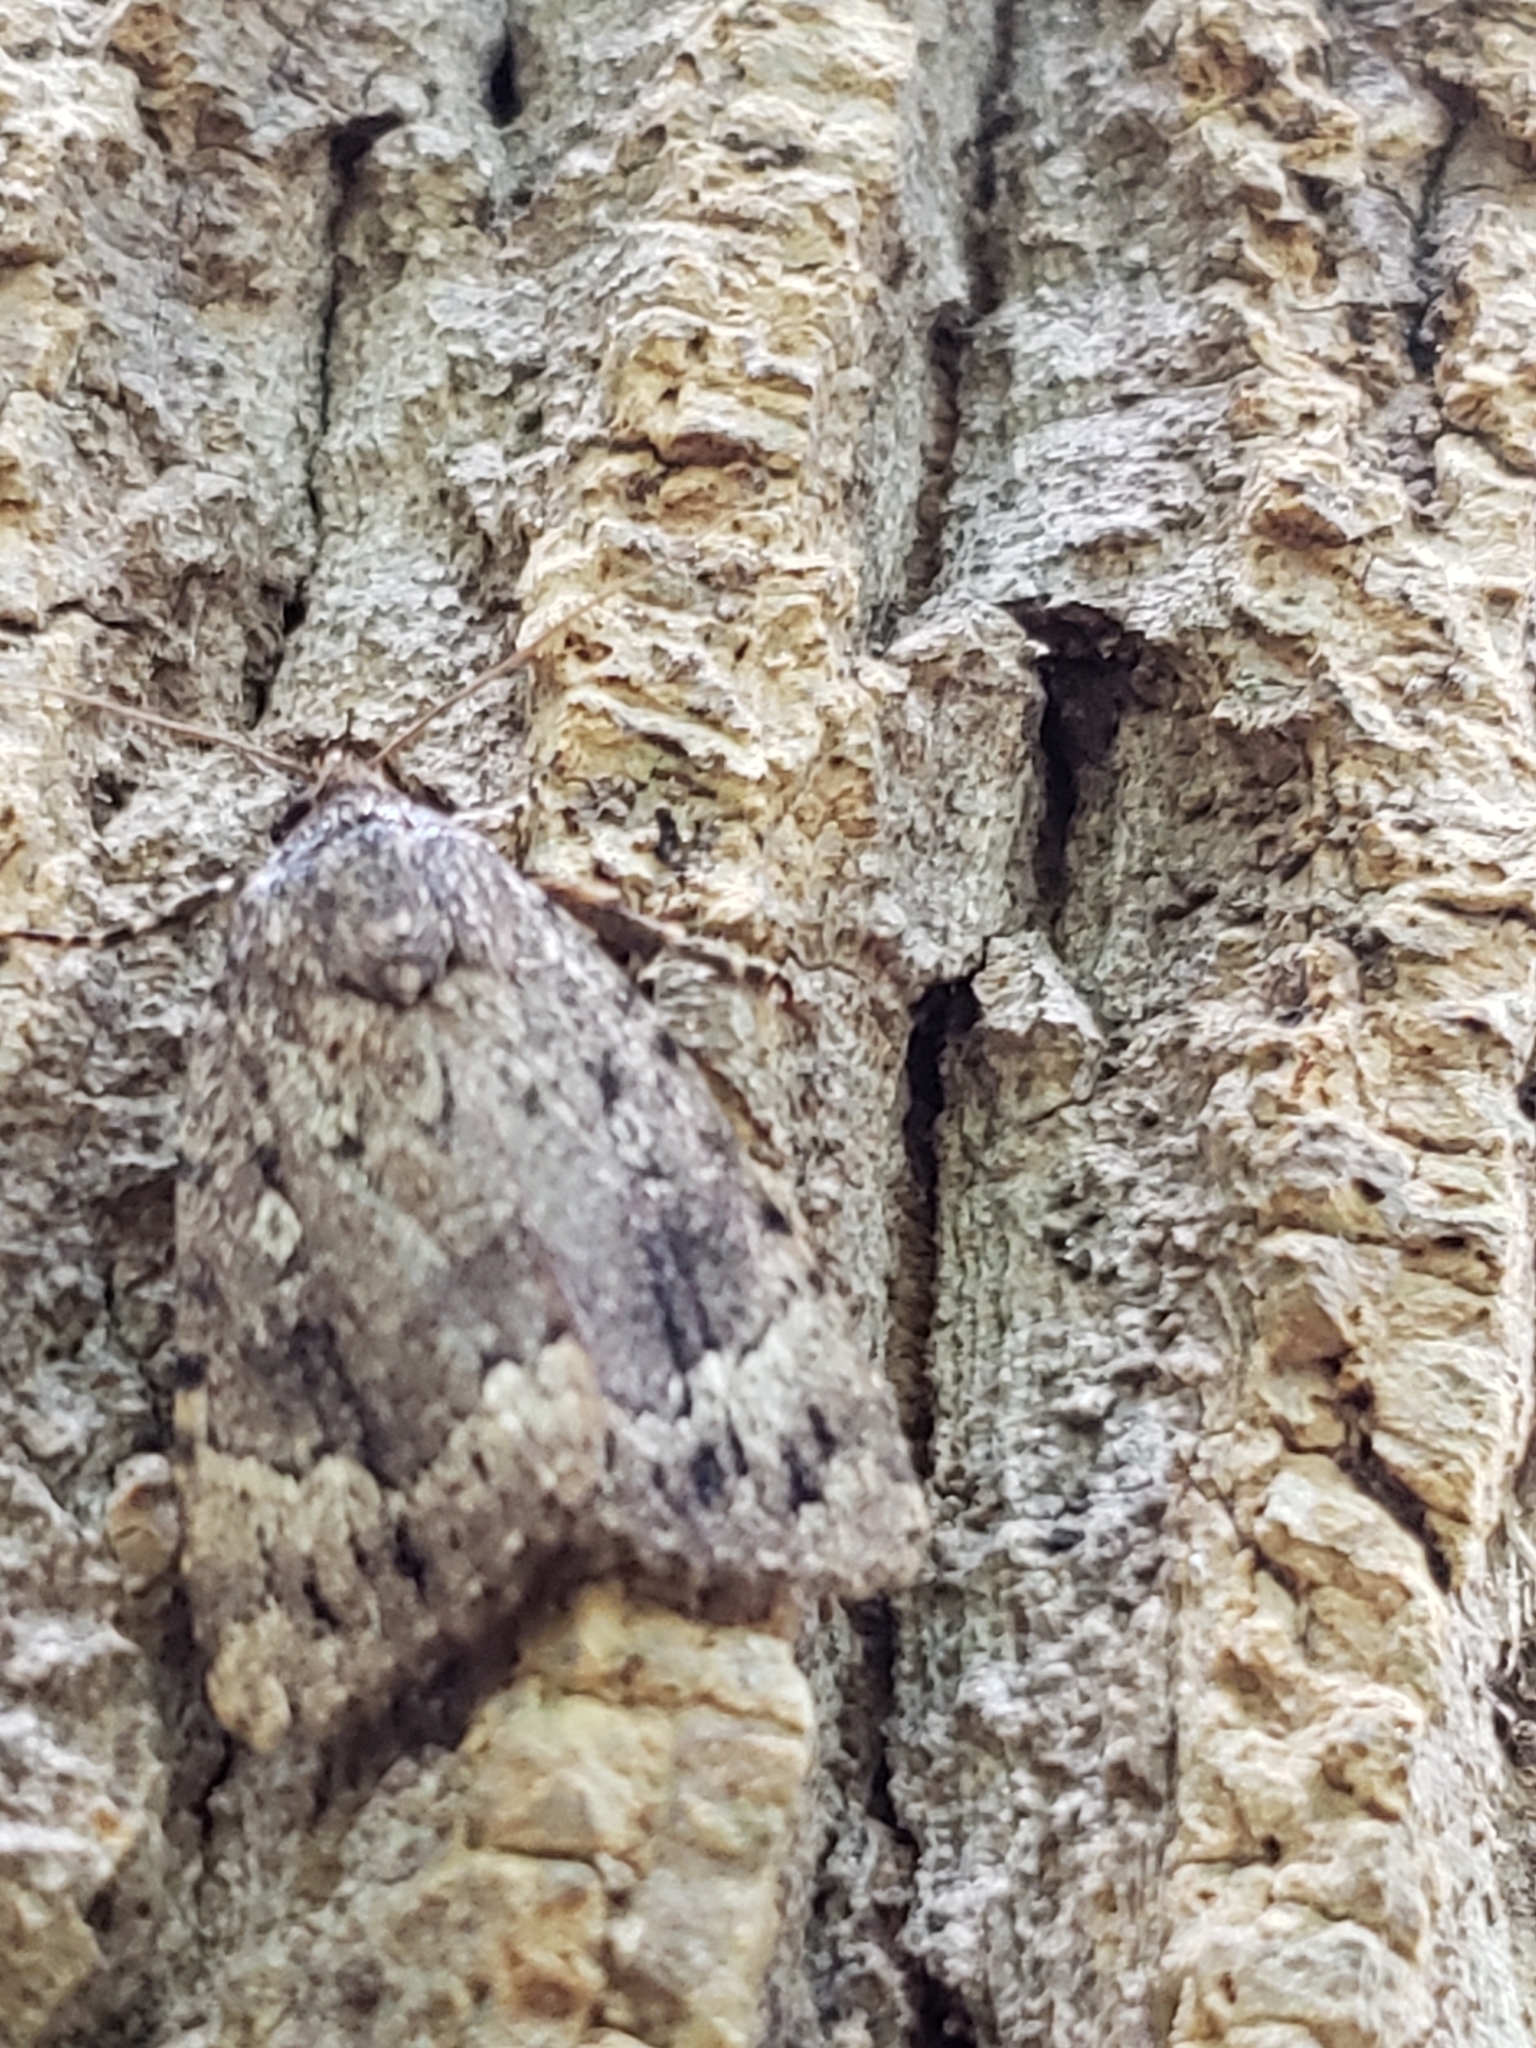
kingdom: Animalia
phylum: Arthropoda
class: Insecta
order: Lepidoptera
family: Noctuidae
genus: Amphipyra
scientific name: Amphipyra pyramidoides
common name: American copper underwing
